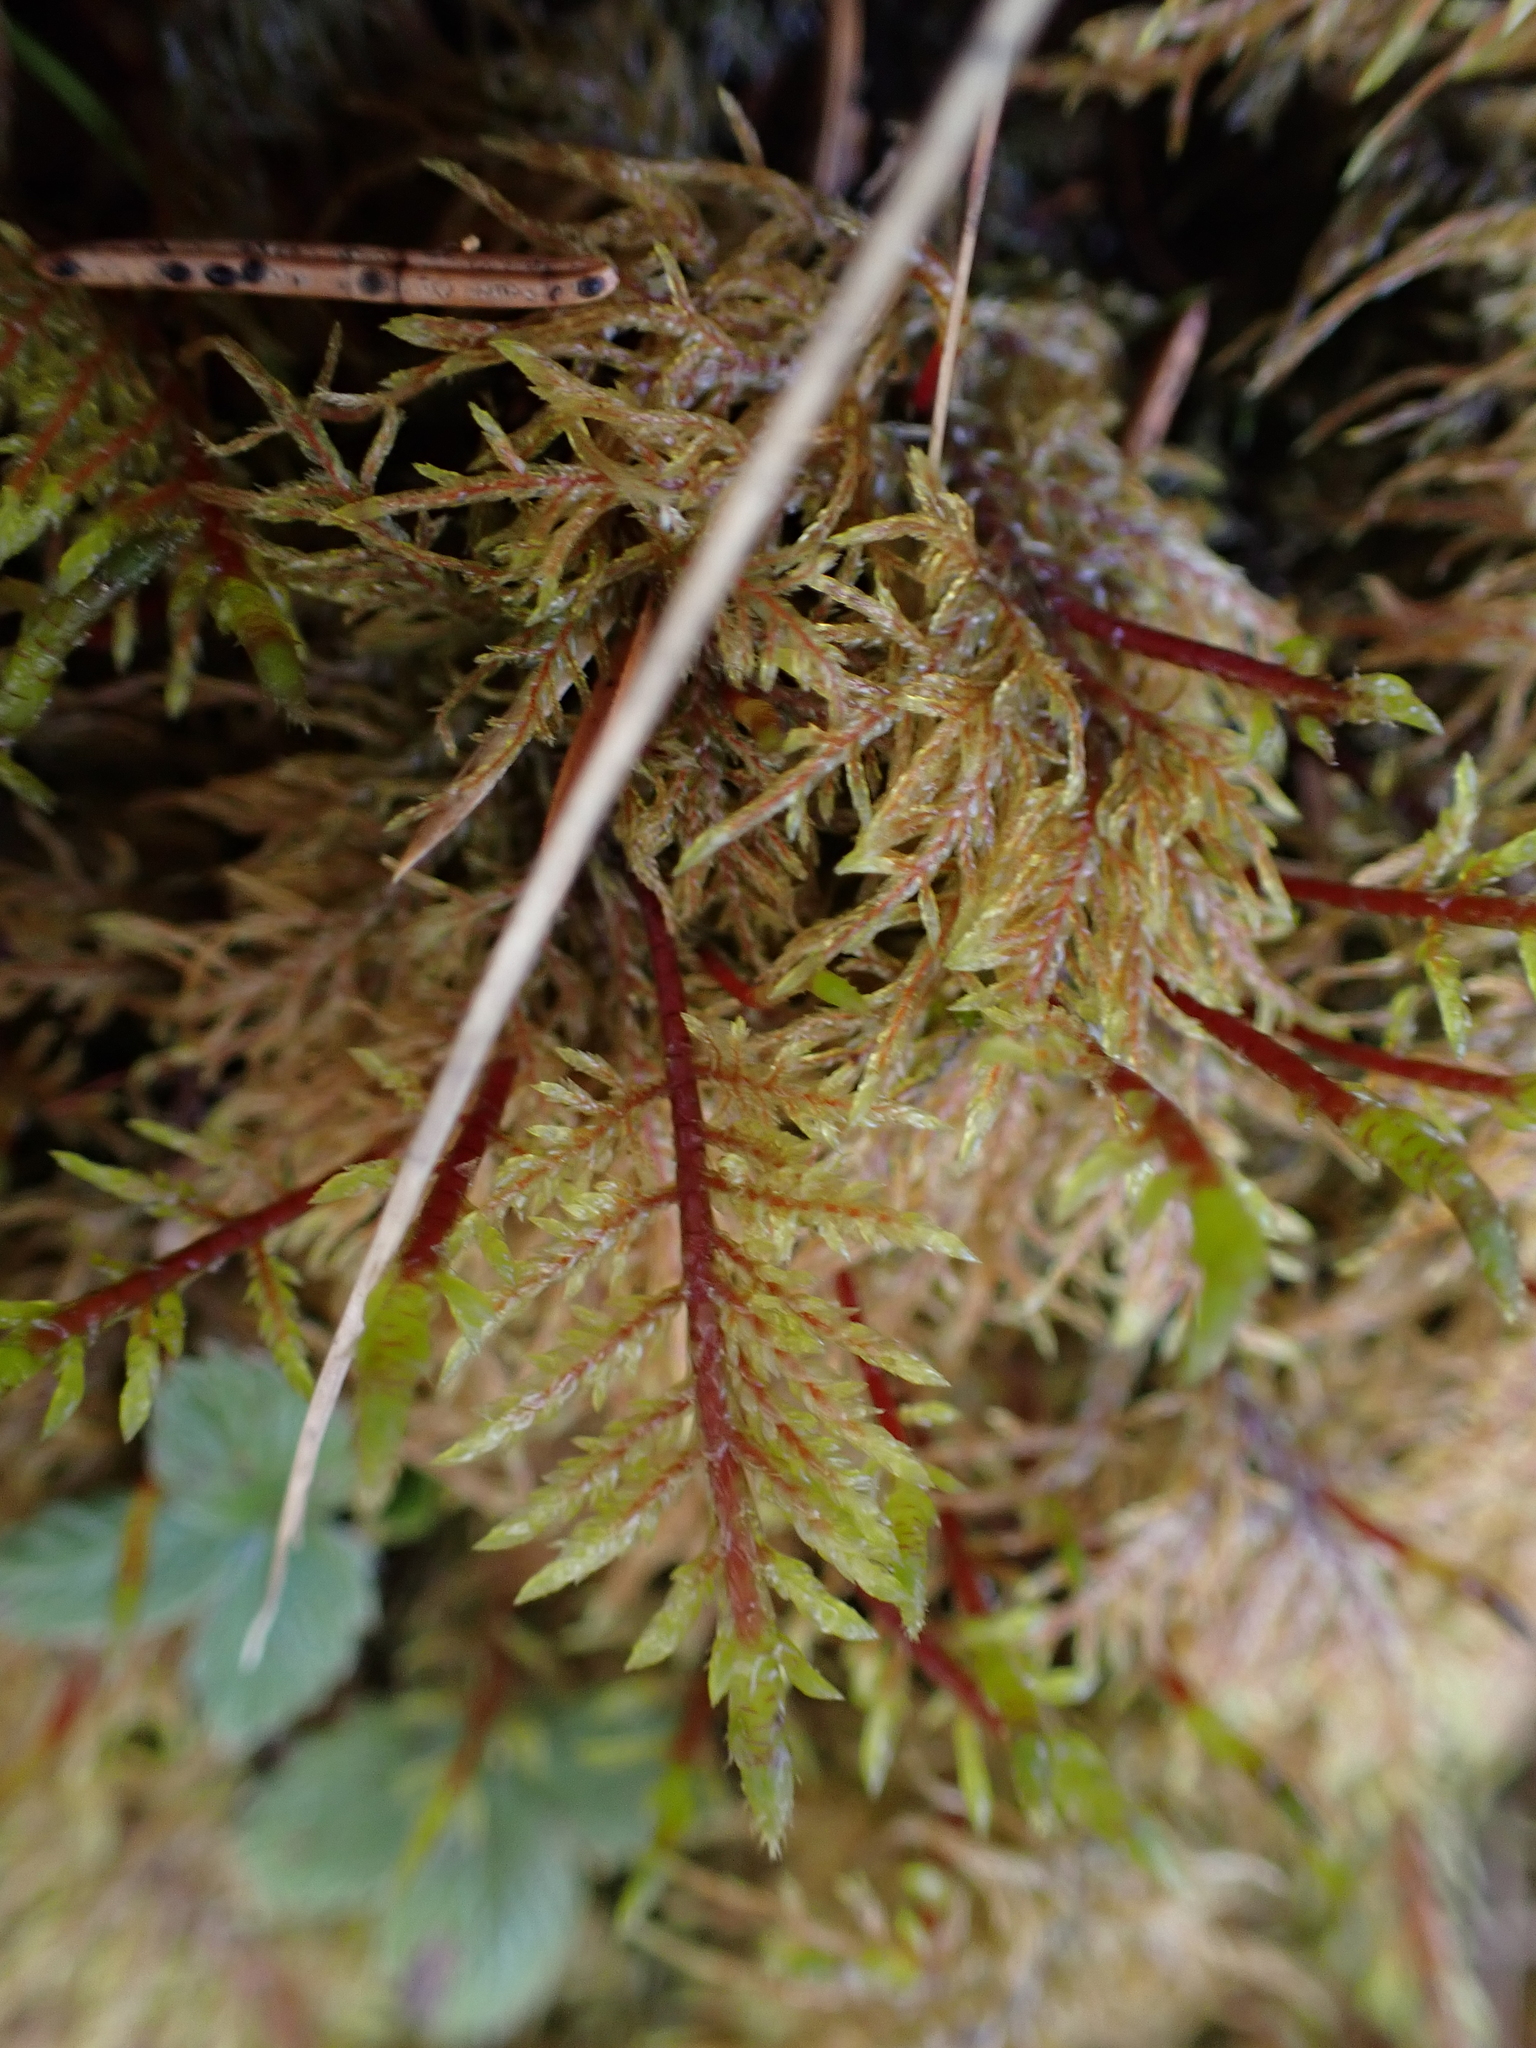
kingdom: Plantae
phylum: Bryophyta
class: Bryopsida
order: Hypnales
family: Hylocomiaceae
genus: Hylocomium
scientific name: Hylocomium splendens
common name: Stairstep moss
